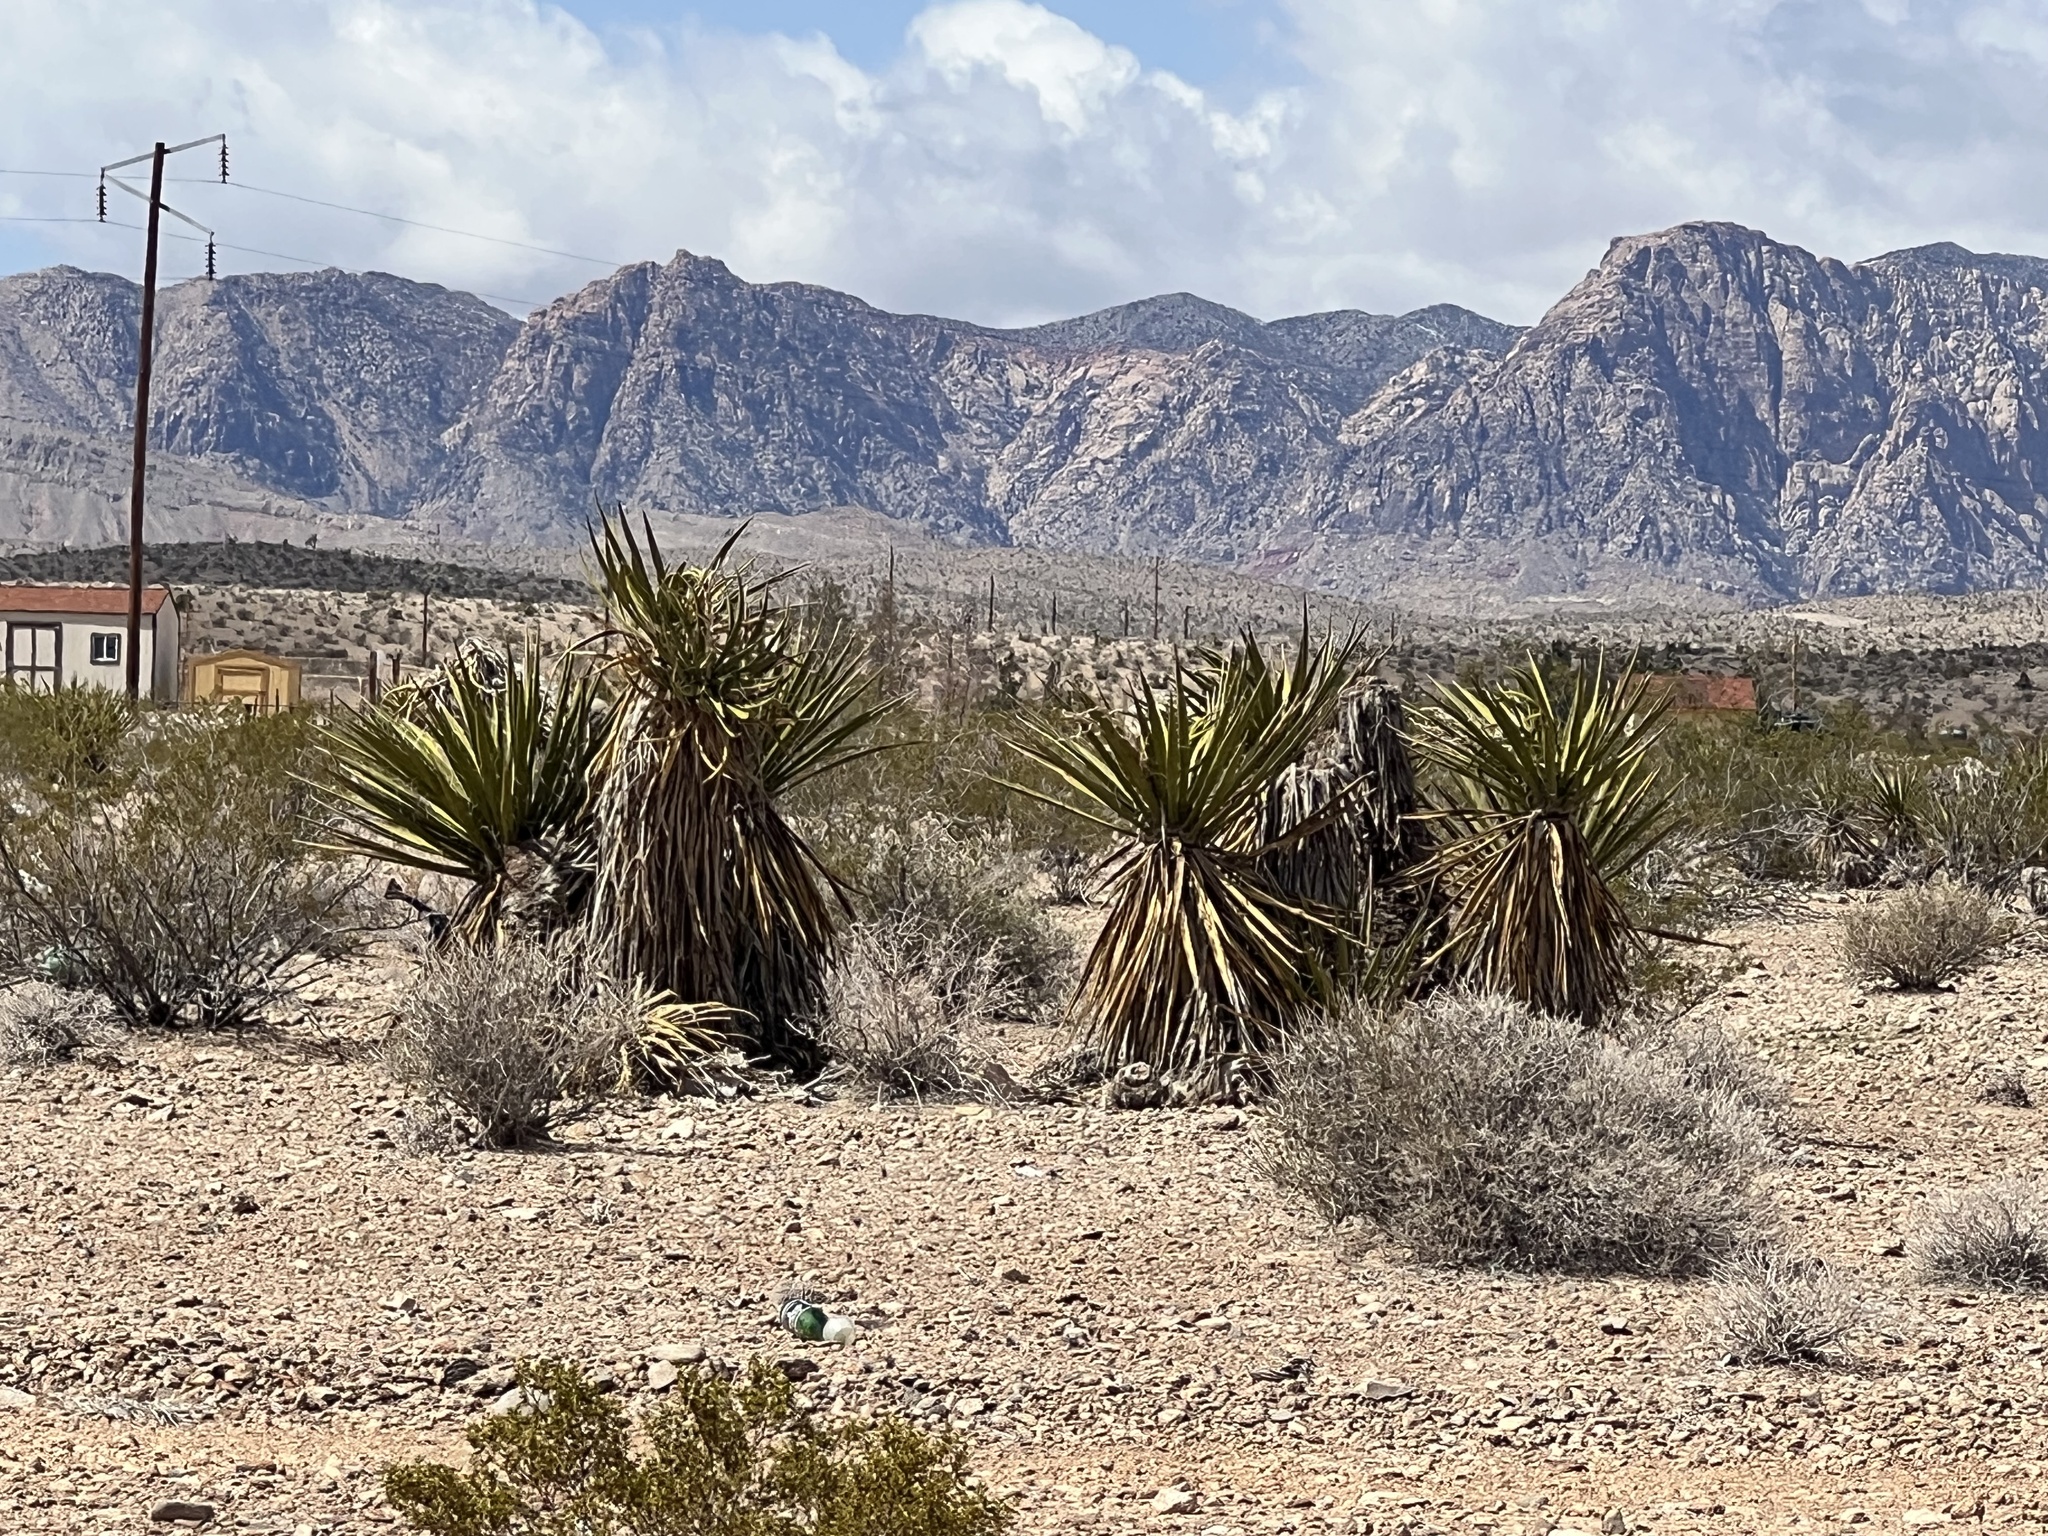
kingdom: Plantae
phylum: Tracheophyta
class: Liliopsida
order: Asparagales
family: Asparagaceae
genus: Yucca
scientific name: Yucca schidigera
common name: Mojave yucca
